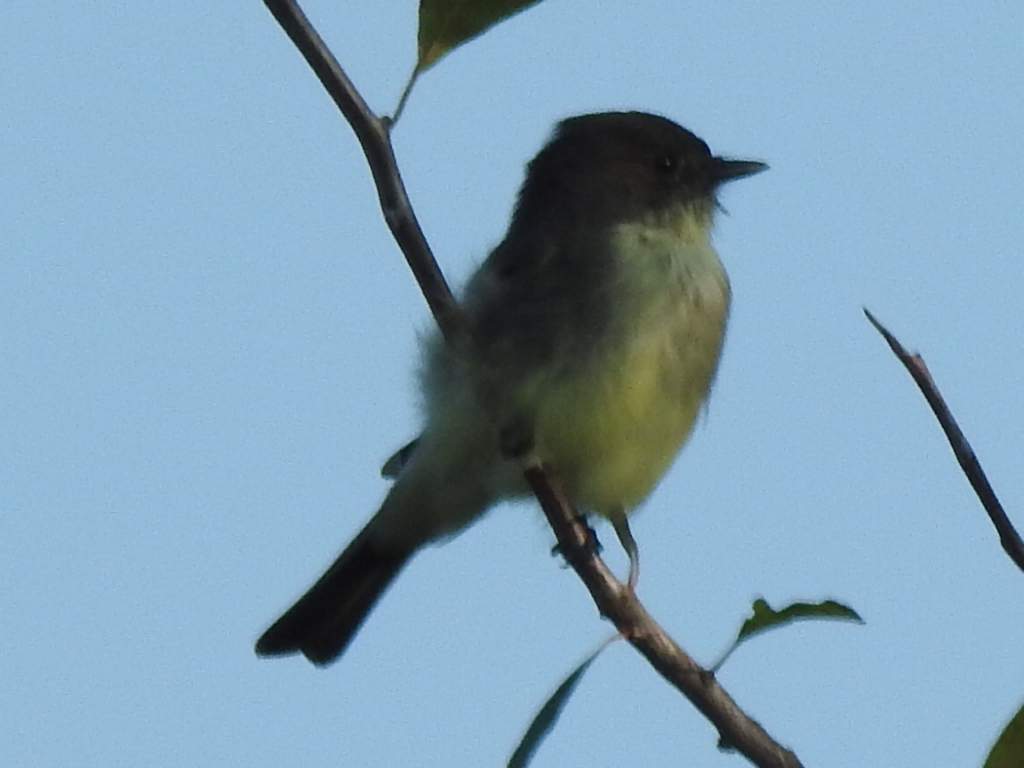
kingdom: Animalia
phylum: Chordata
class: Aves
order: Passeriformes
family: Tyrannidae
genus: Sayornis
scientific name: Sayornis phoebe
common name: Eastern phoebe
